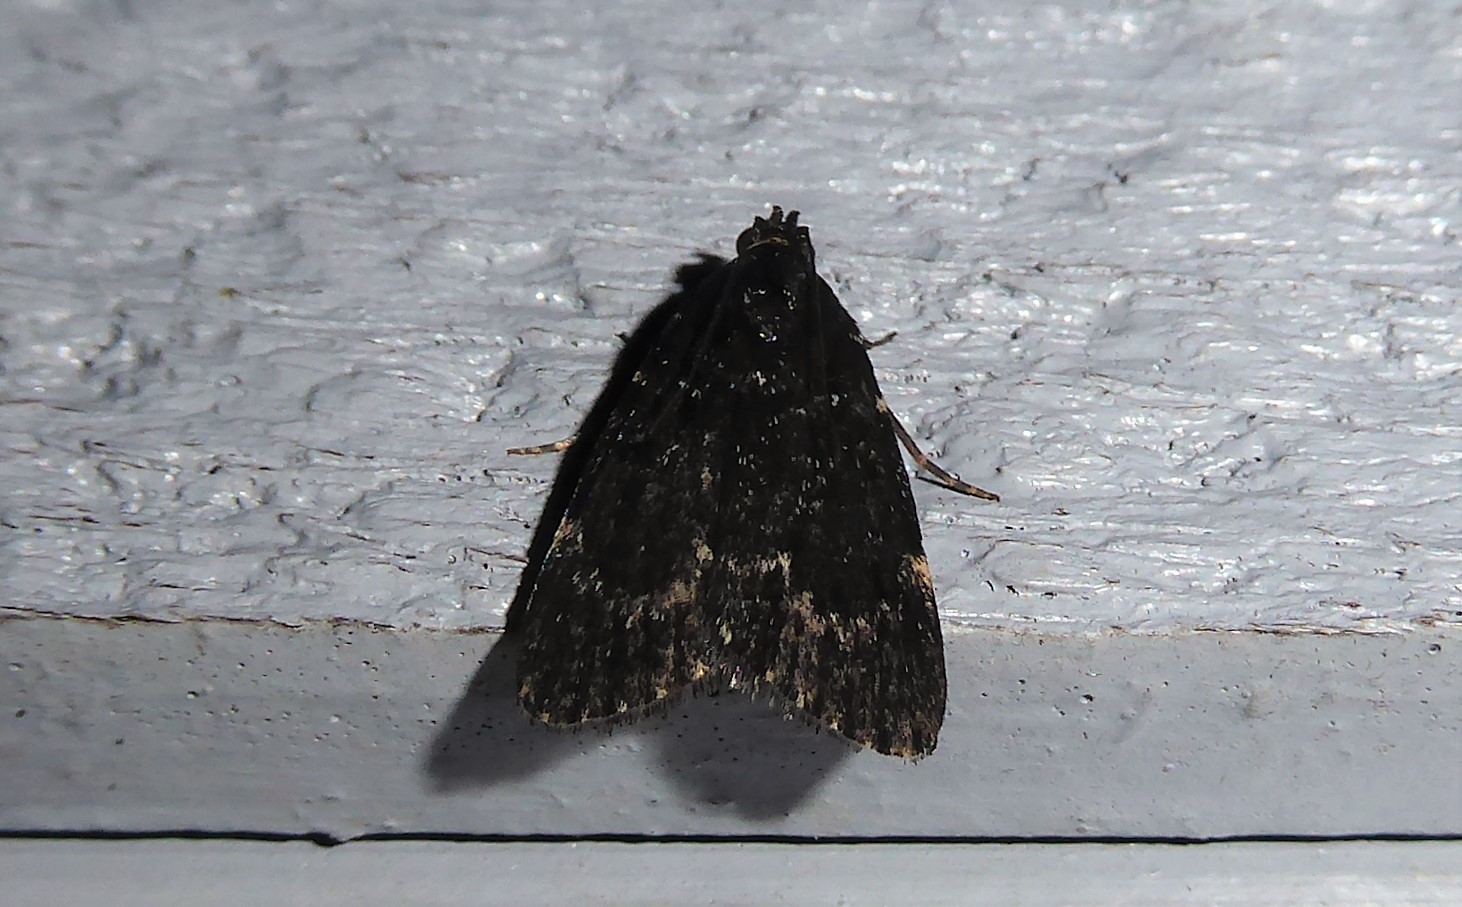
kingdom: Animalia
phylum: Arthropoda
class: Insecta
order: Lepidoptera
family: Pyralidae
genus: Stericta
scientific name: Stericta carbonalis
